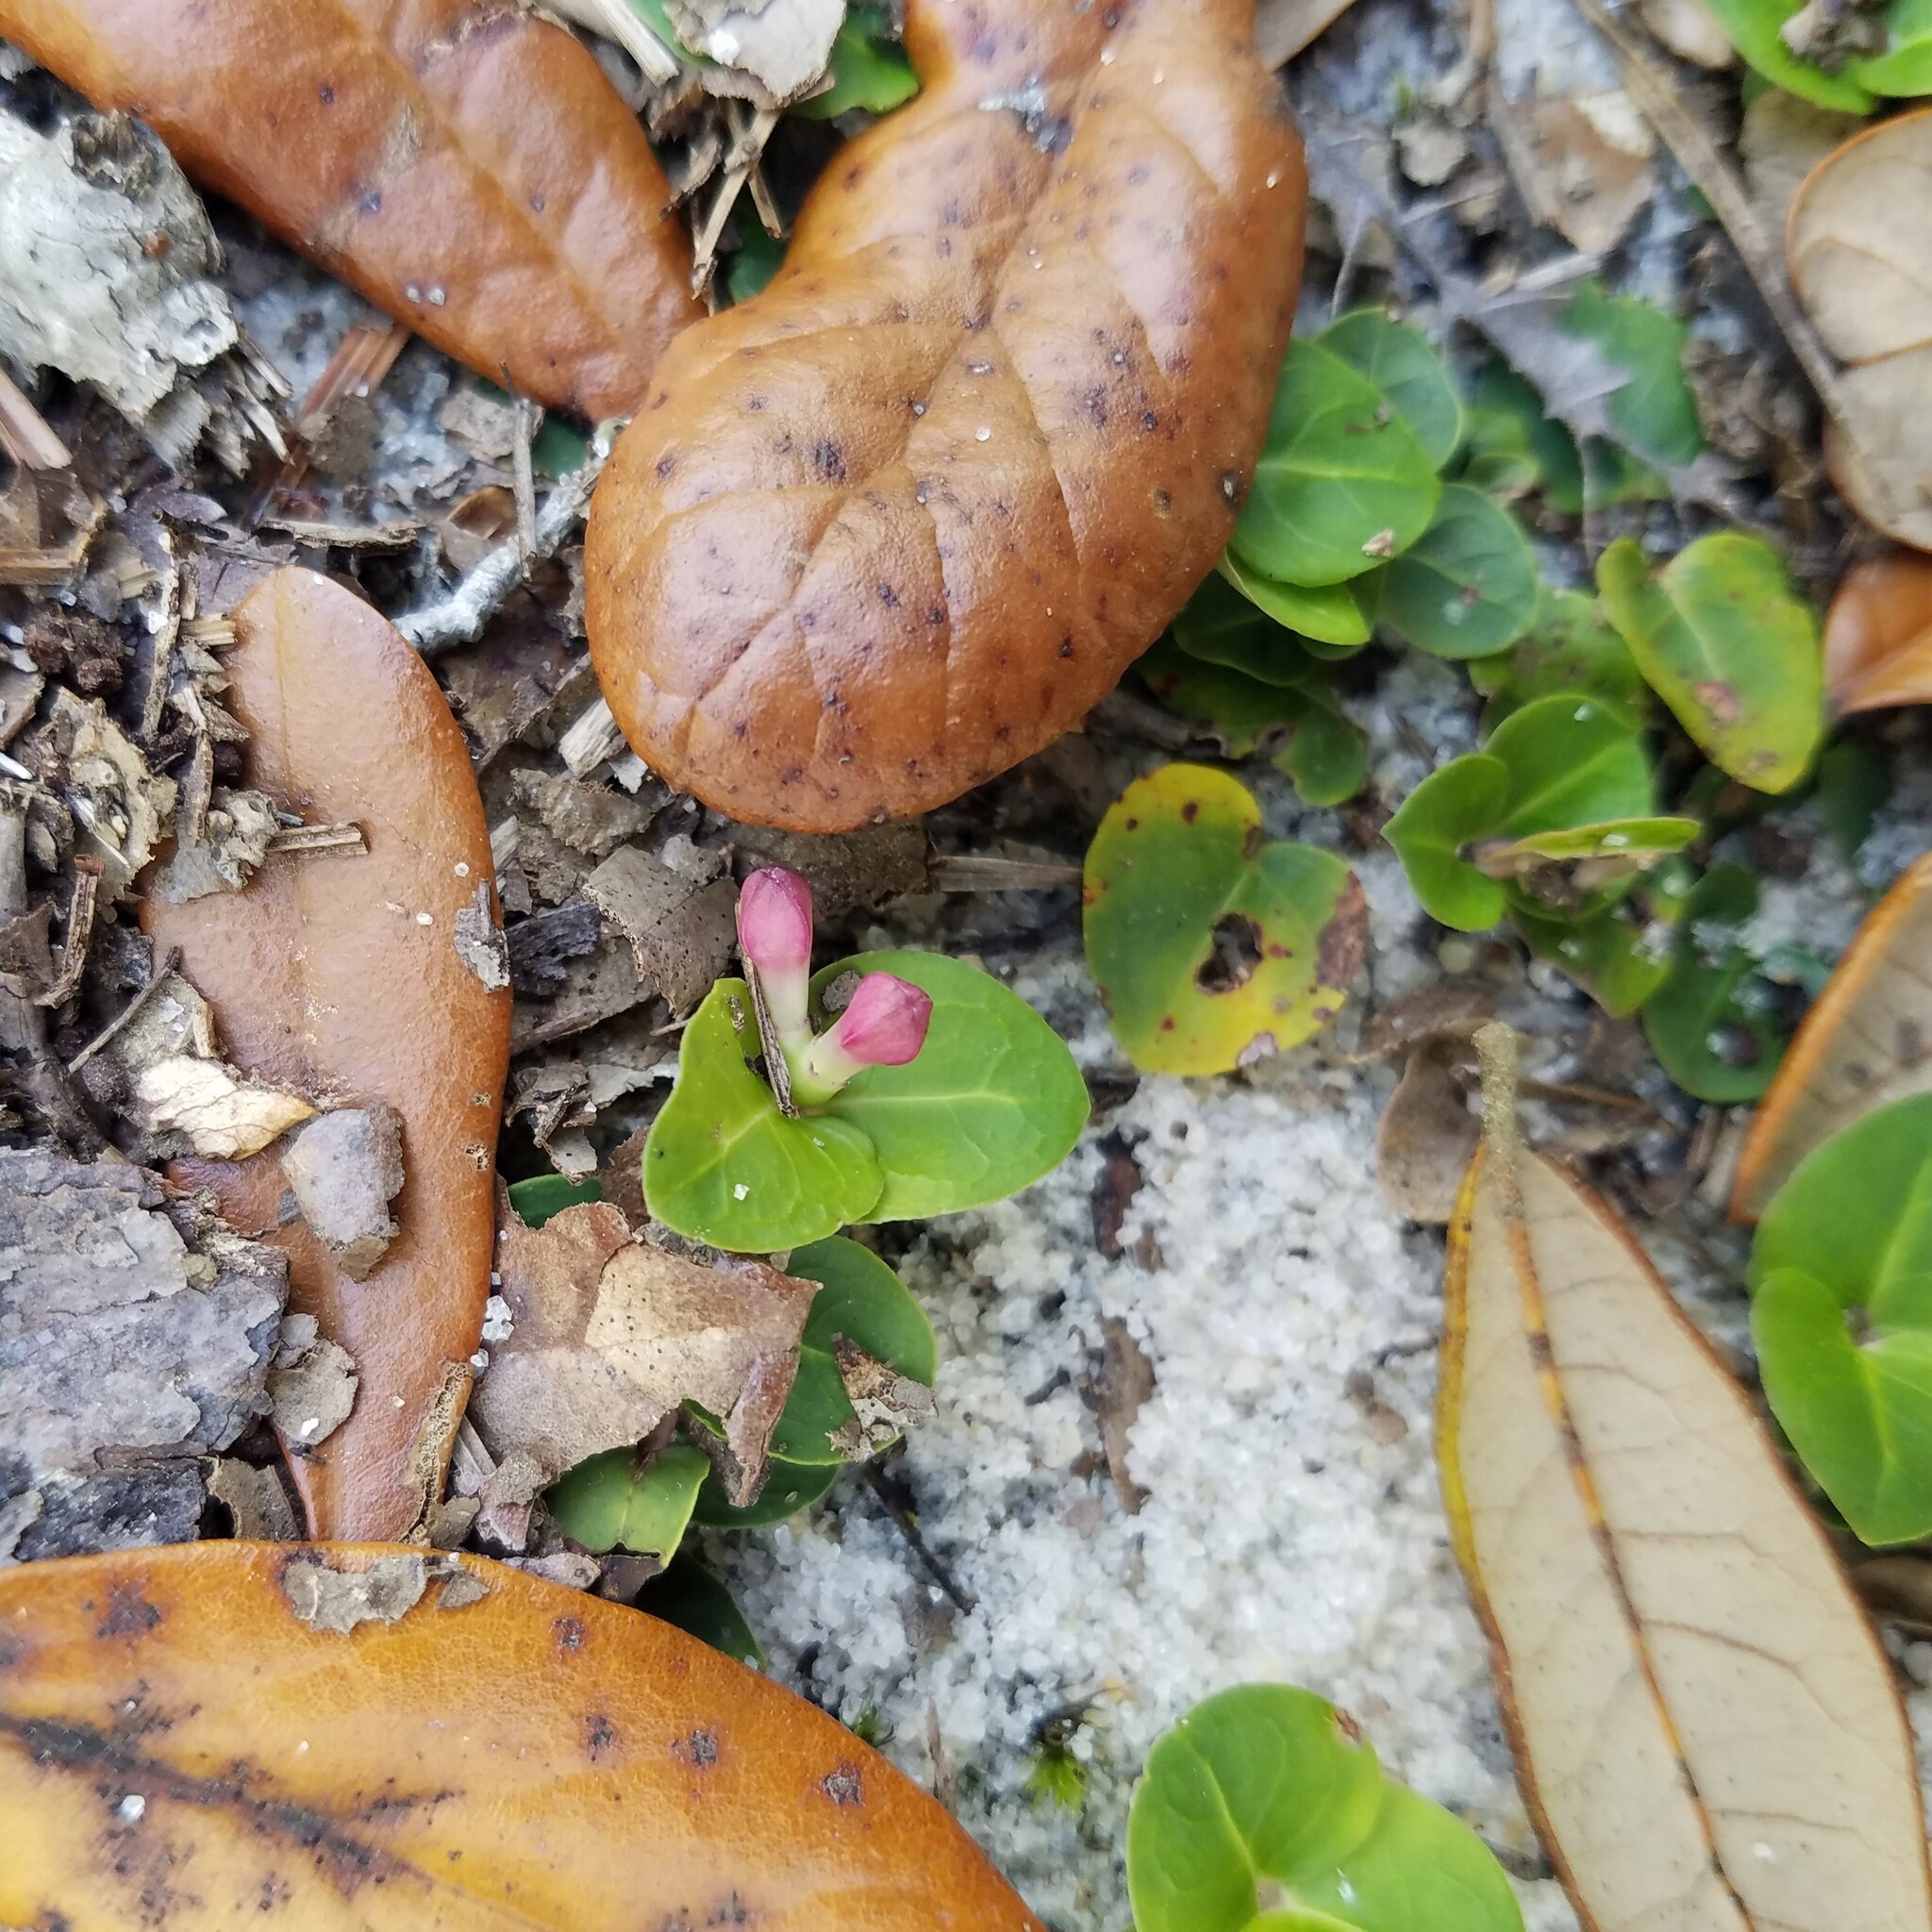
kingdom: Plantae
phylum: Tracheophyta
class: Magnoliopsida
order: Gentianales
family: Rubiaceae
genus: Mitchella
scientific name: Mitchella repens
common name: Partridge-berry
